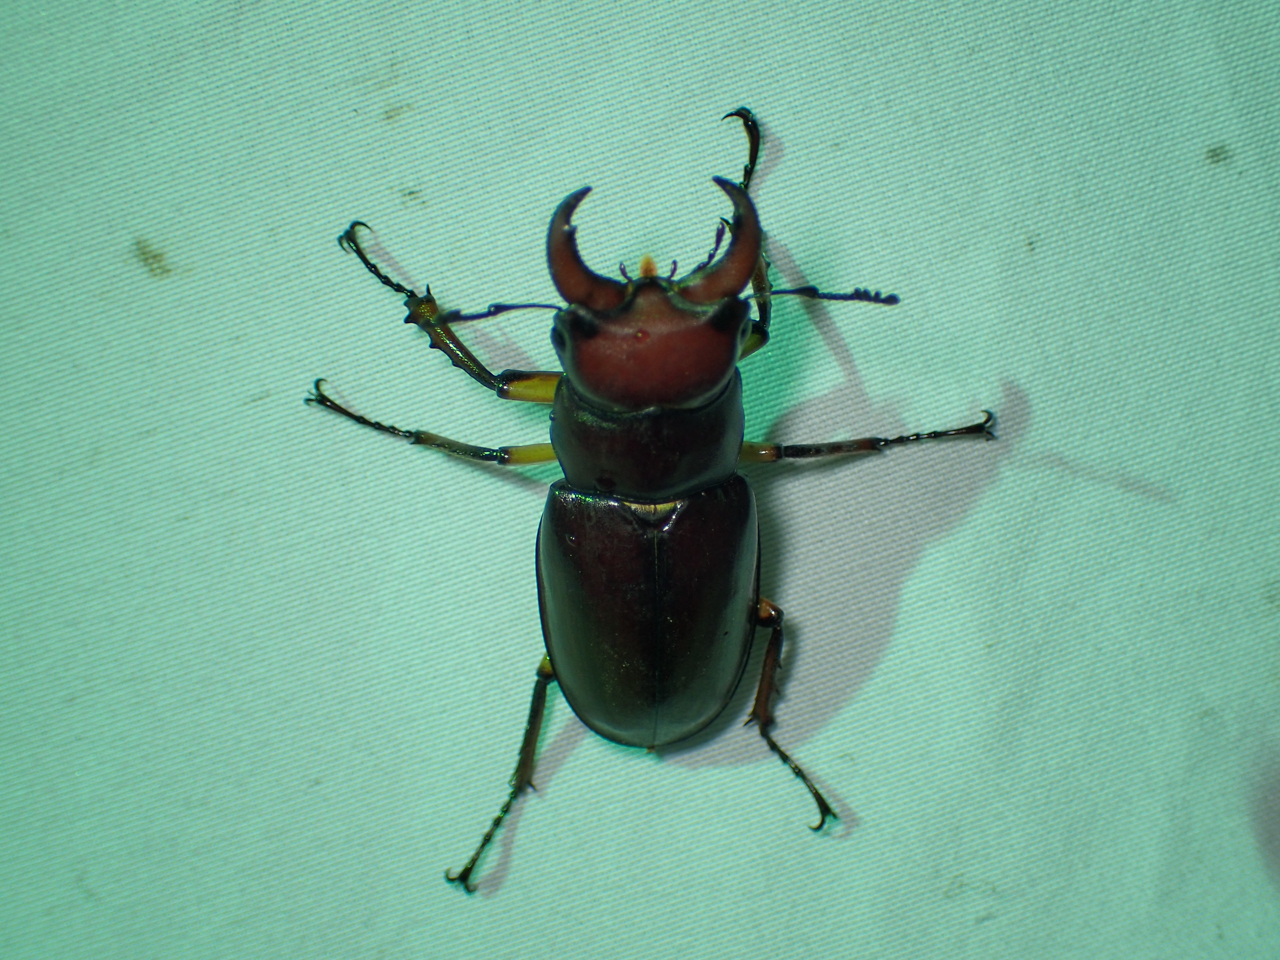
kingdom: Animalia
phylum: Arthropoda
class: Insecta
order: Coleoptera
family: Lucanidae
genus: Lucanus
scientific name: Lucanus capreolus
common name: Stag beetle
